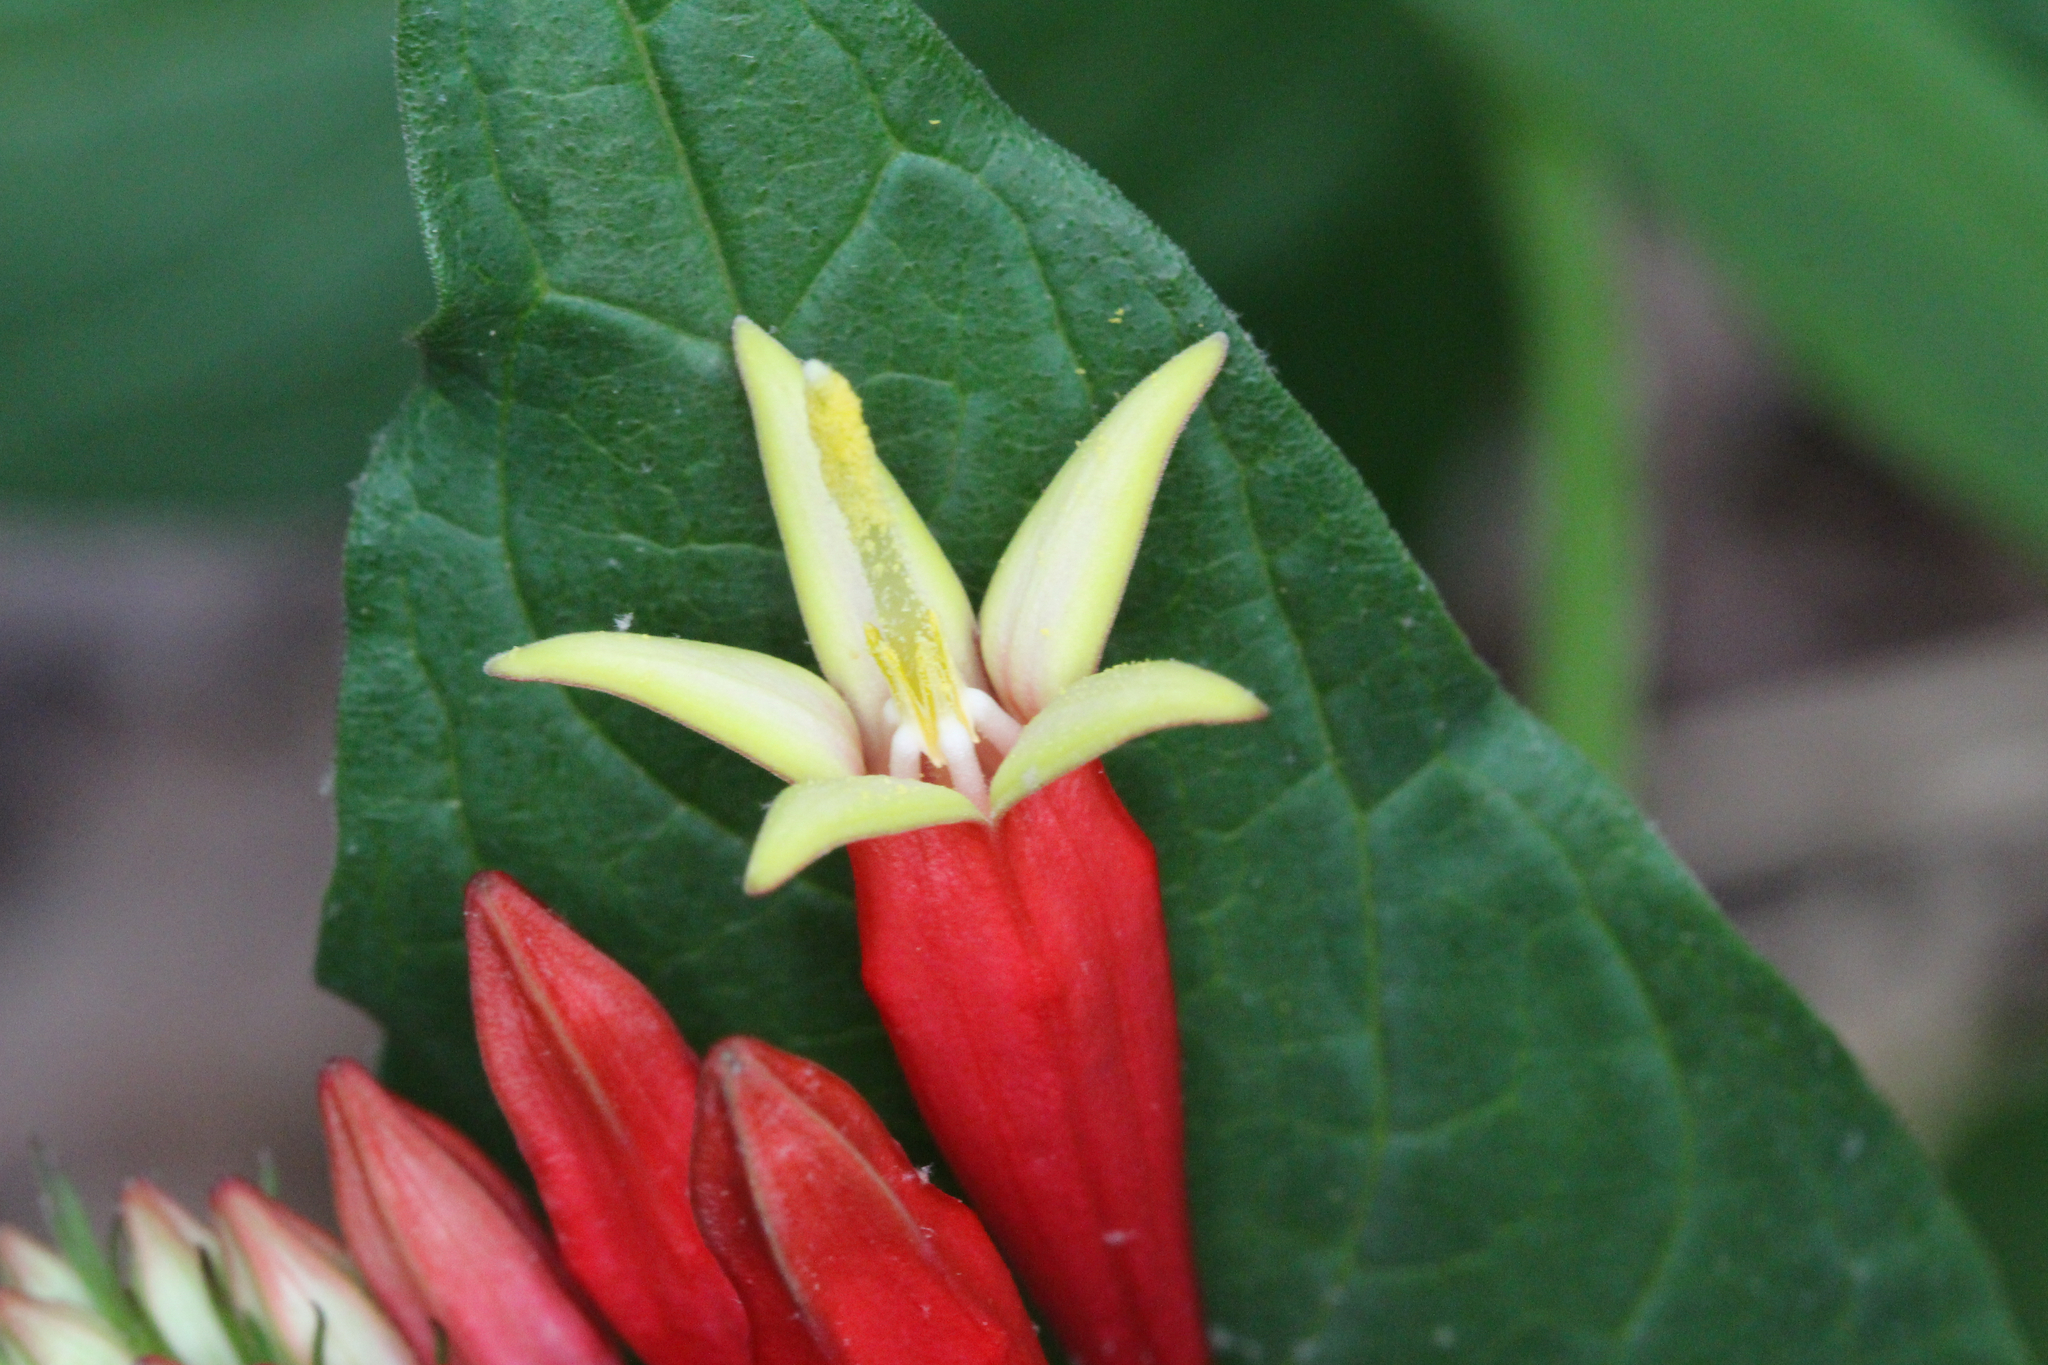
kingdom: Plantae
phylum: Tracheophyta
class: Magnoliopsida
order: Gentianales
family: Loganiaceae
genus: Spigelia
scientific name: Spigelia marilandica
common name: Indian-pink
